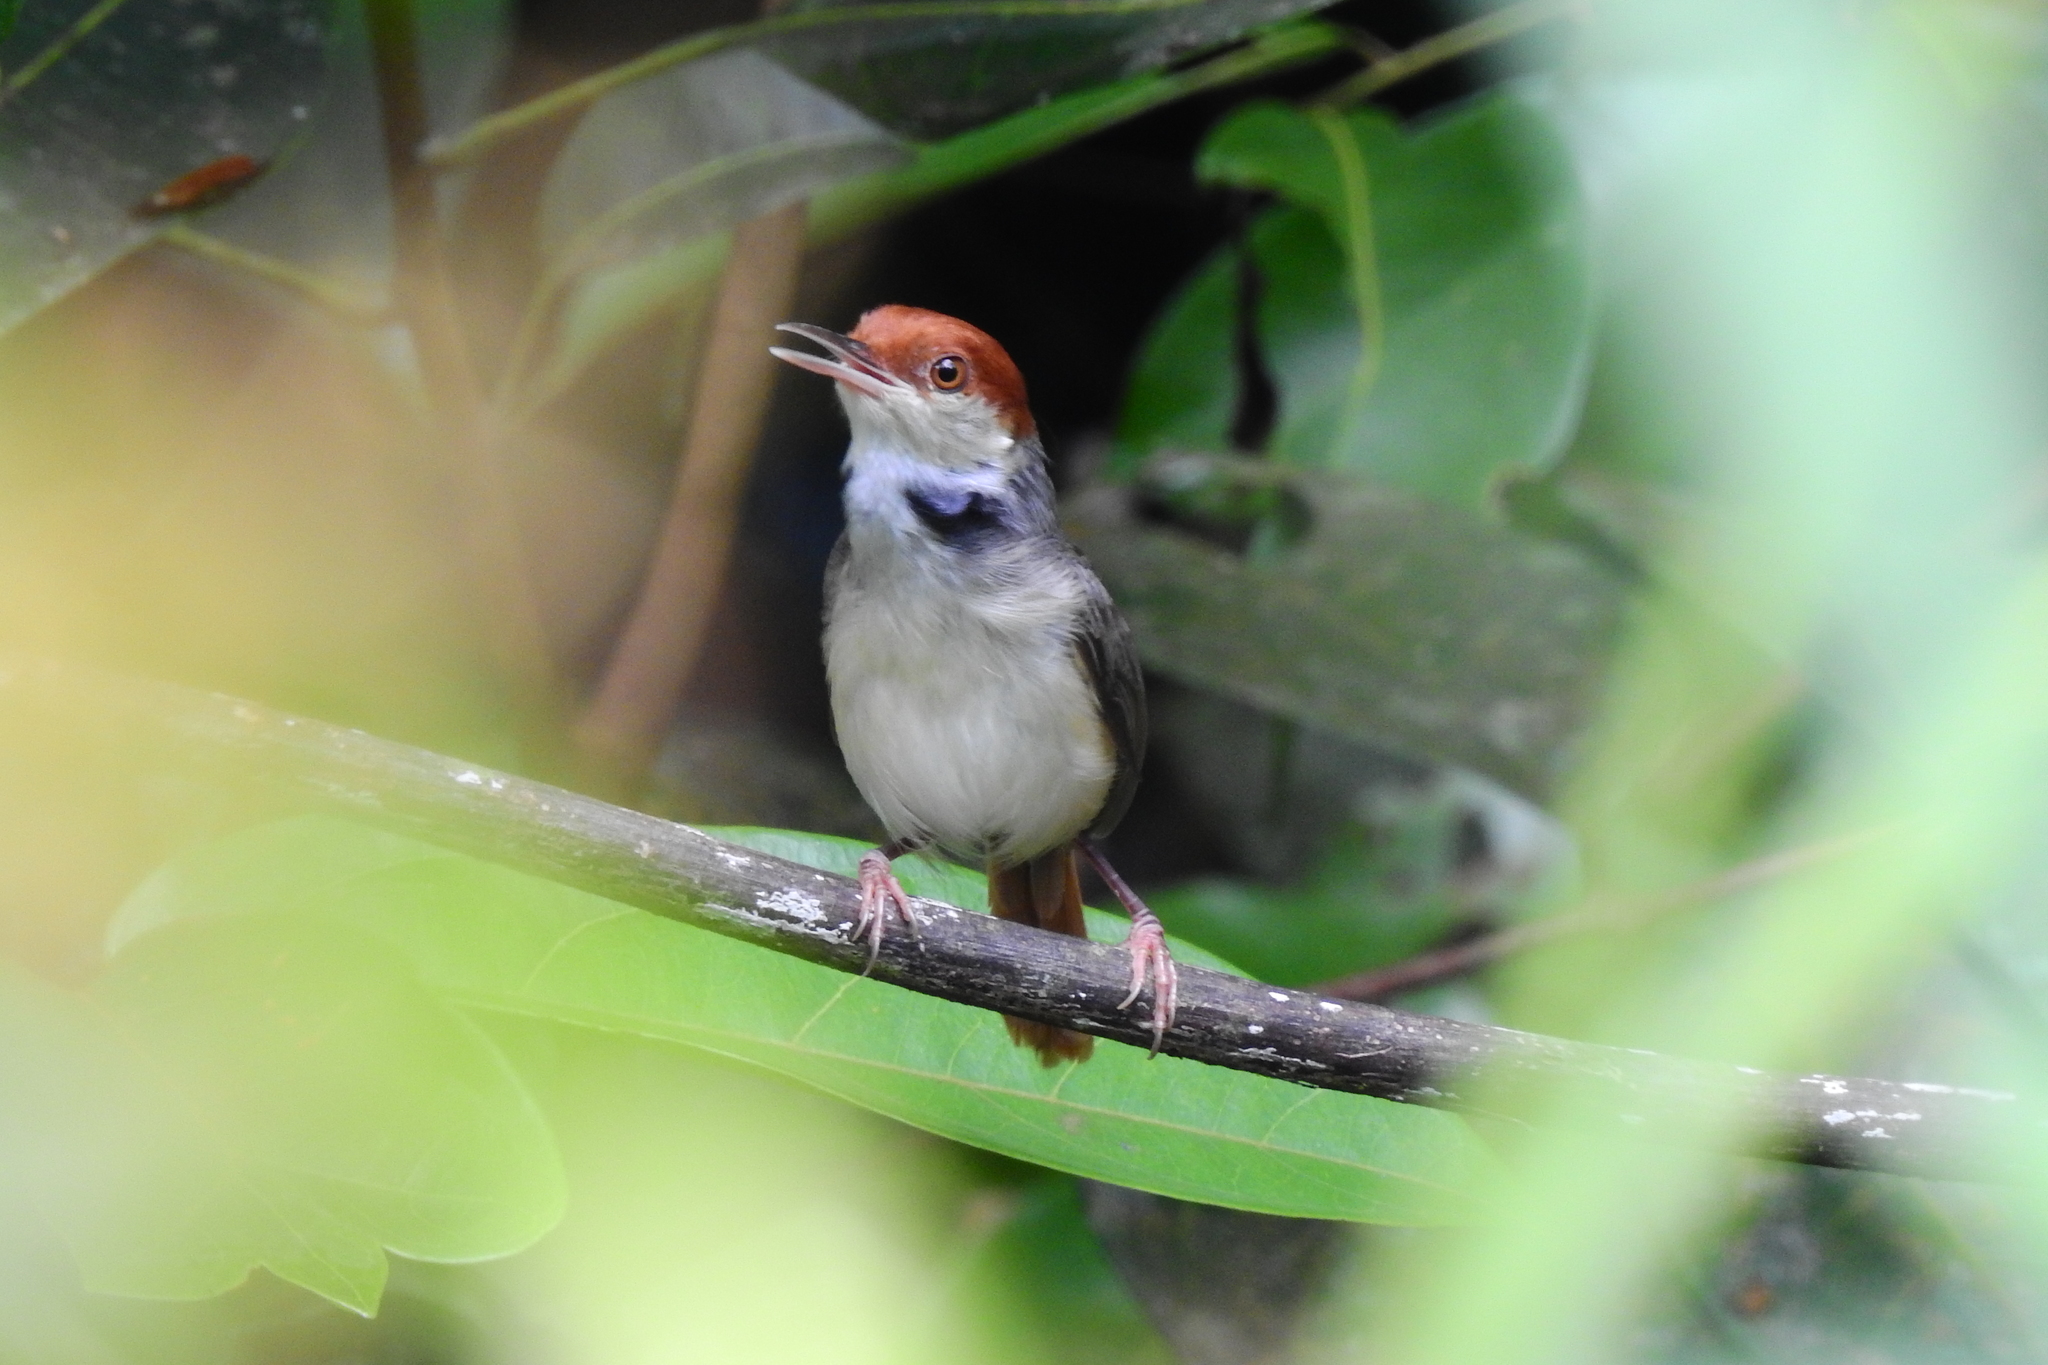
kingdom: Animalia
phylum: Chordata
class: Aves
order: Passeriformes
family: Cisticolidae
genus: Orthotomus
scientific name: Orthotomus sericeus
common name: Rufous-tailed tailorbird
